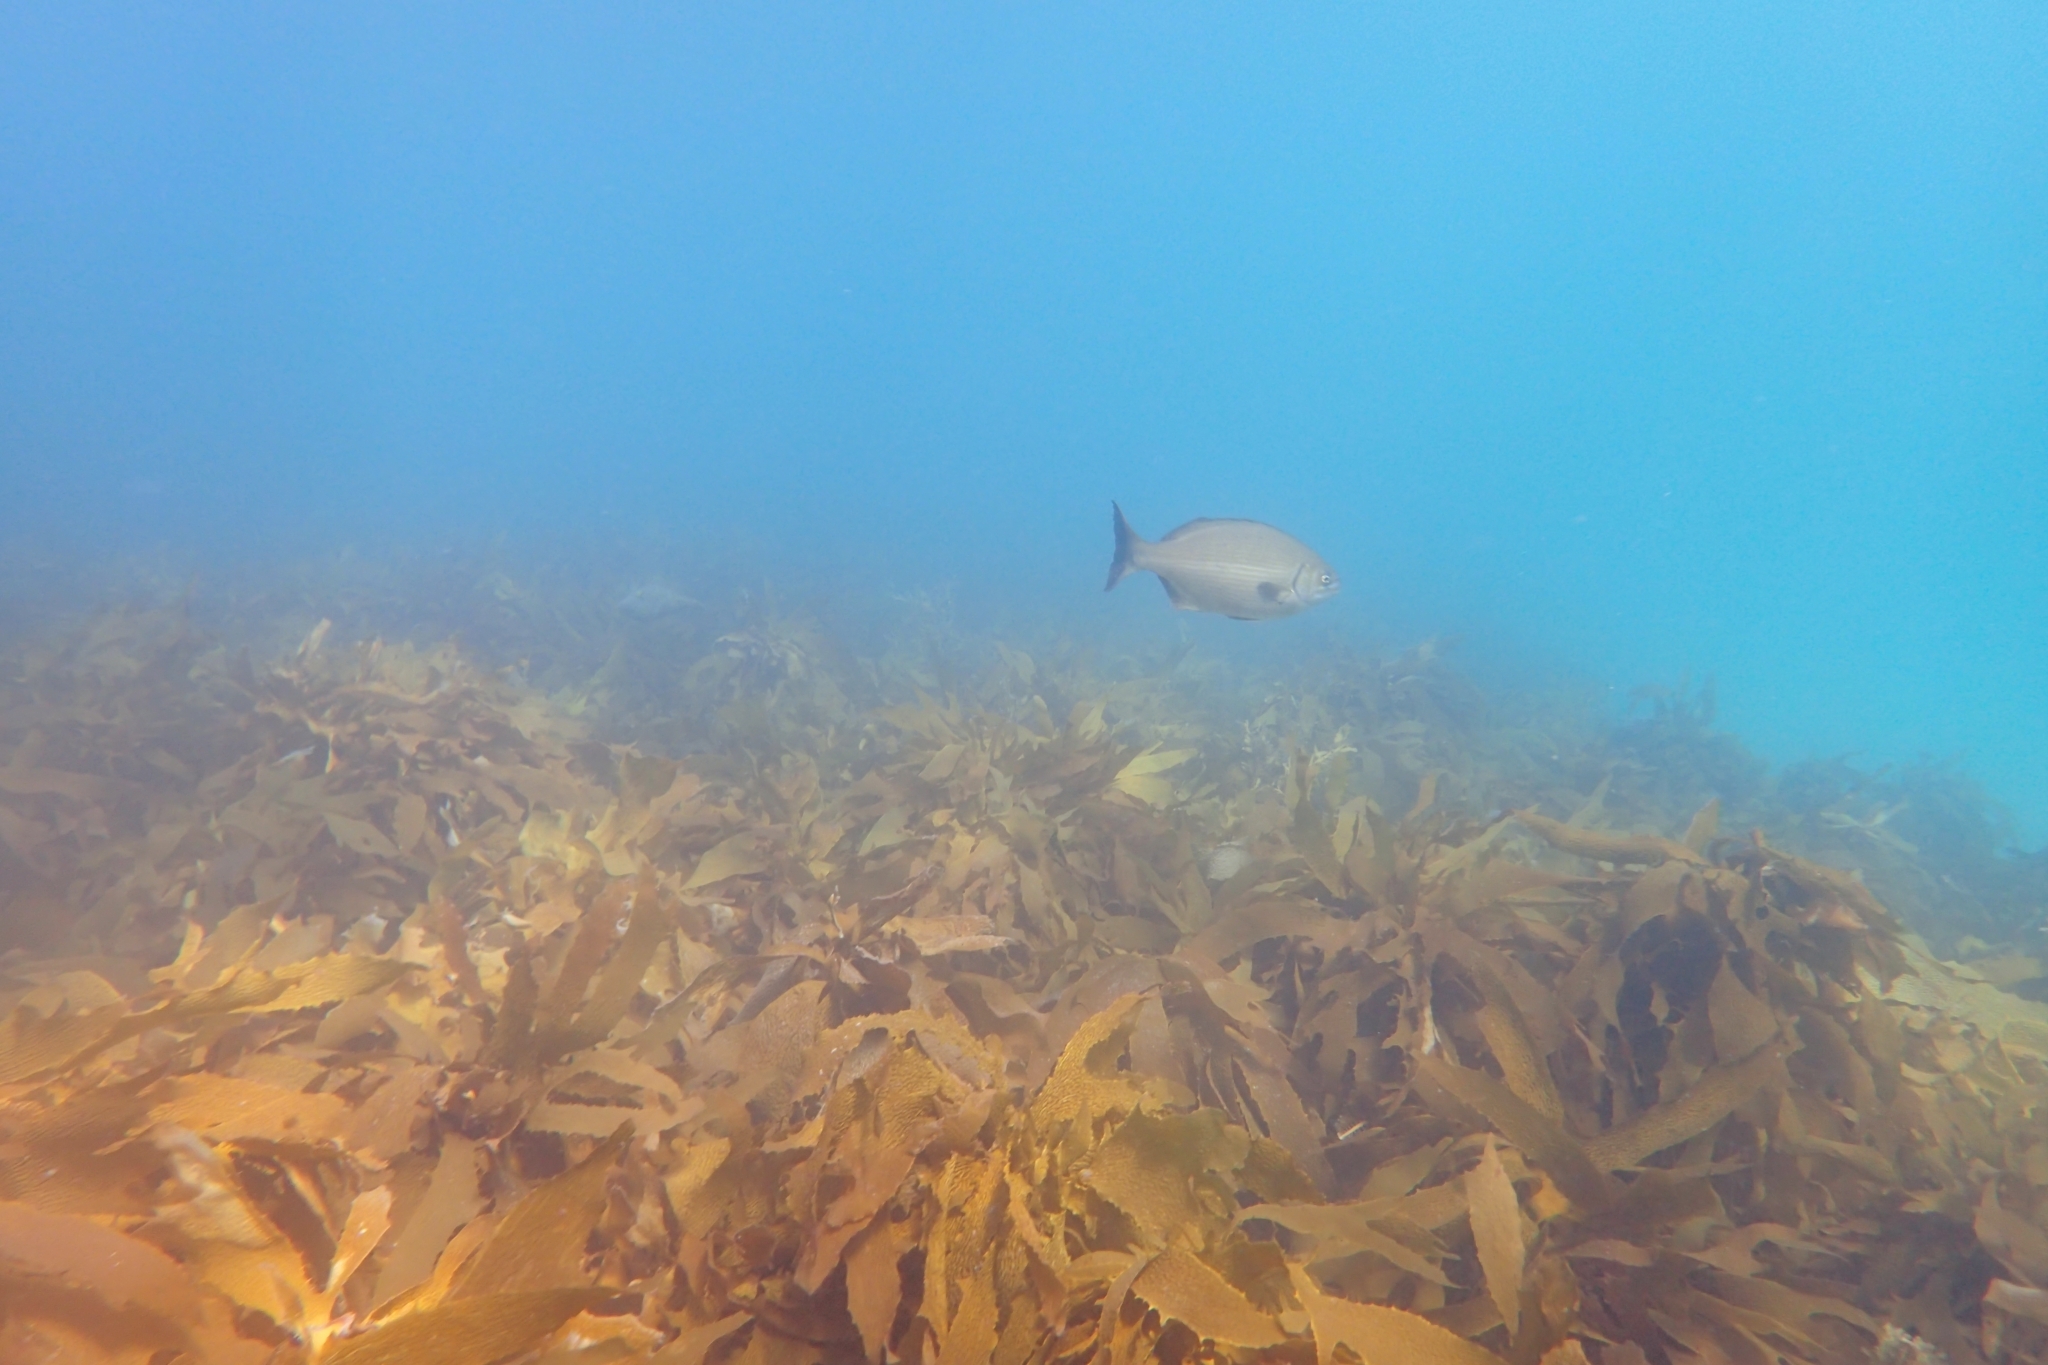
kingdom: Animalia
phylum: Chordata
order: Perciformes
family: Kyphosidae
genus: Kyphosus
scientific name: Kyphosus sydneyanus
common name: Silver drummer
